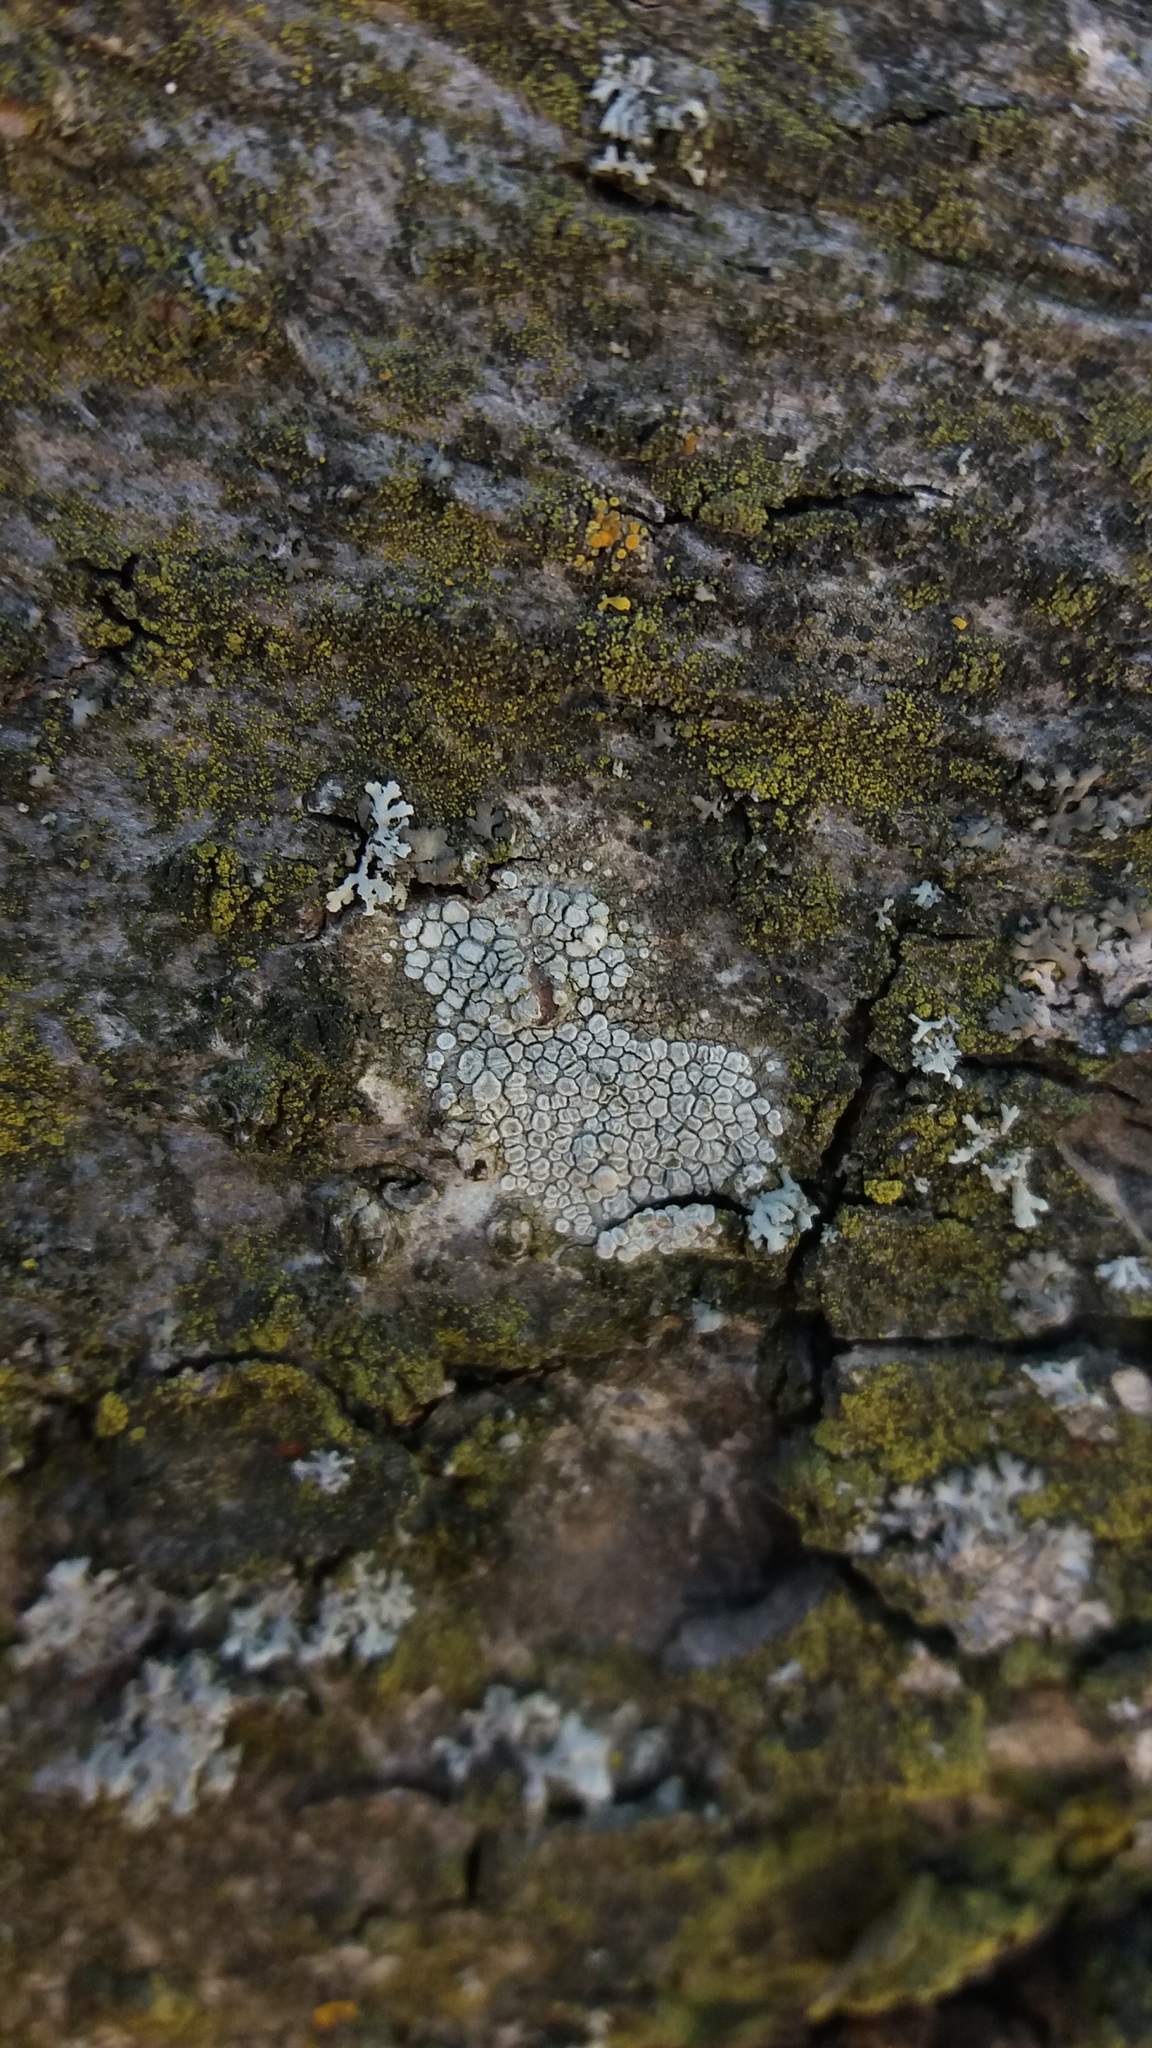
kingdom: Fungi
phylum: Ascomycota
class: Lecanoromycetes
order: Lecanorales
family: Lecanoraceae
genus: Glaucomaria
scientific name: Glaucomaria carpinea
